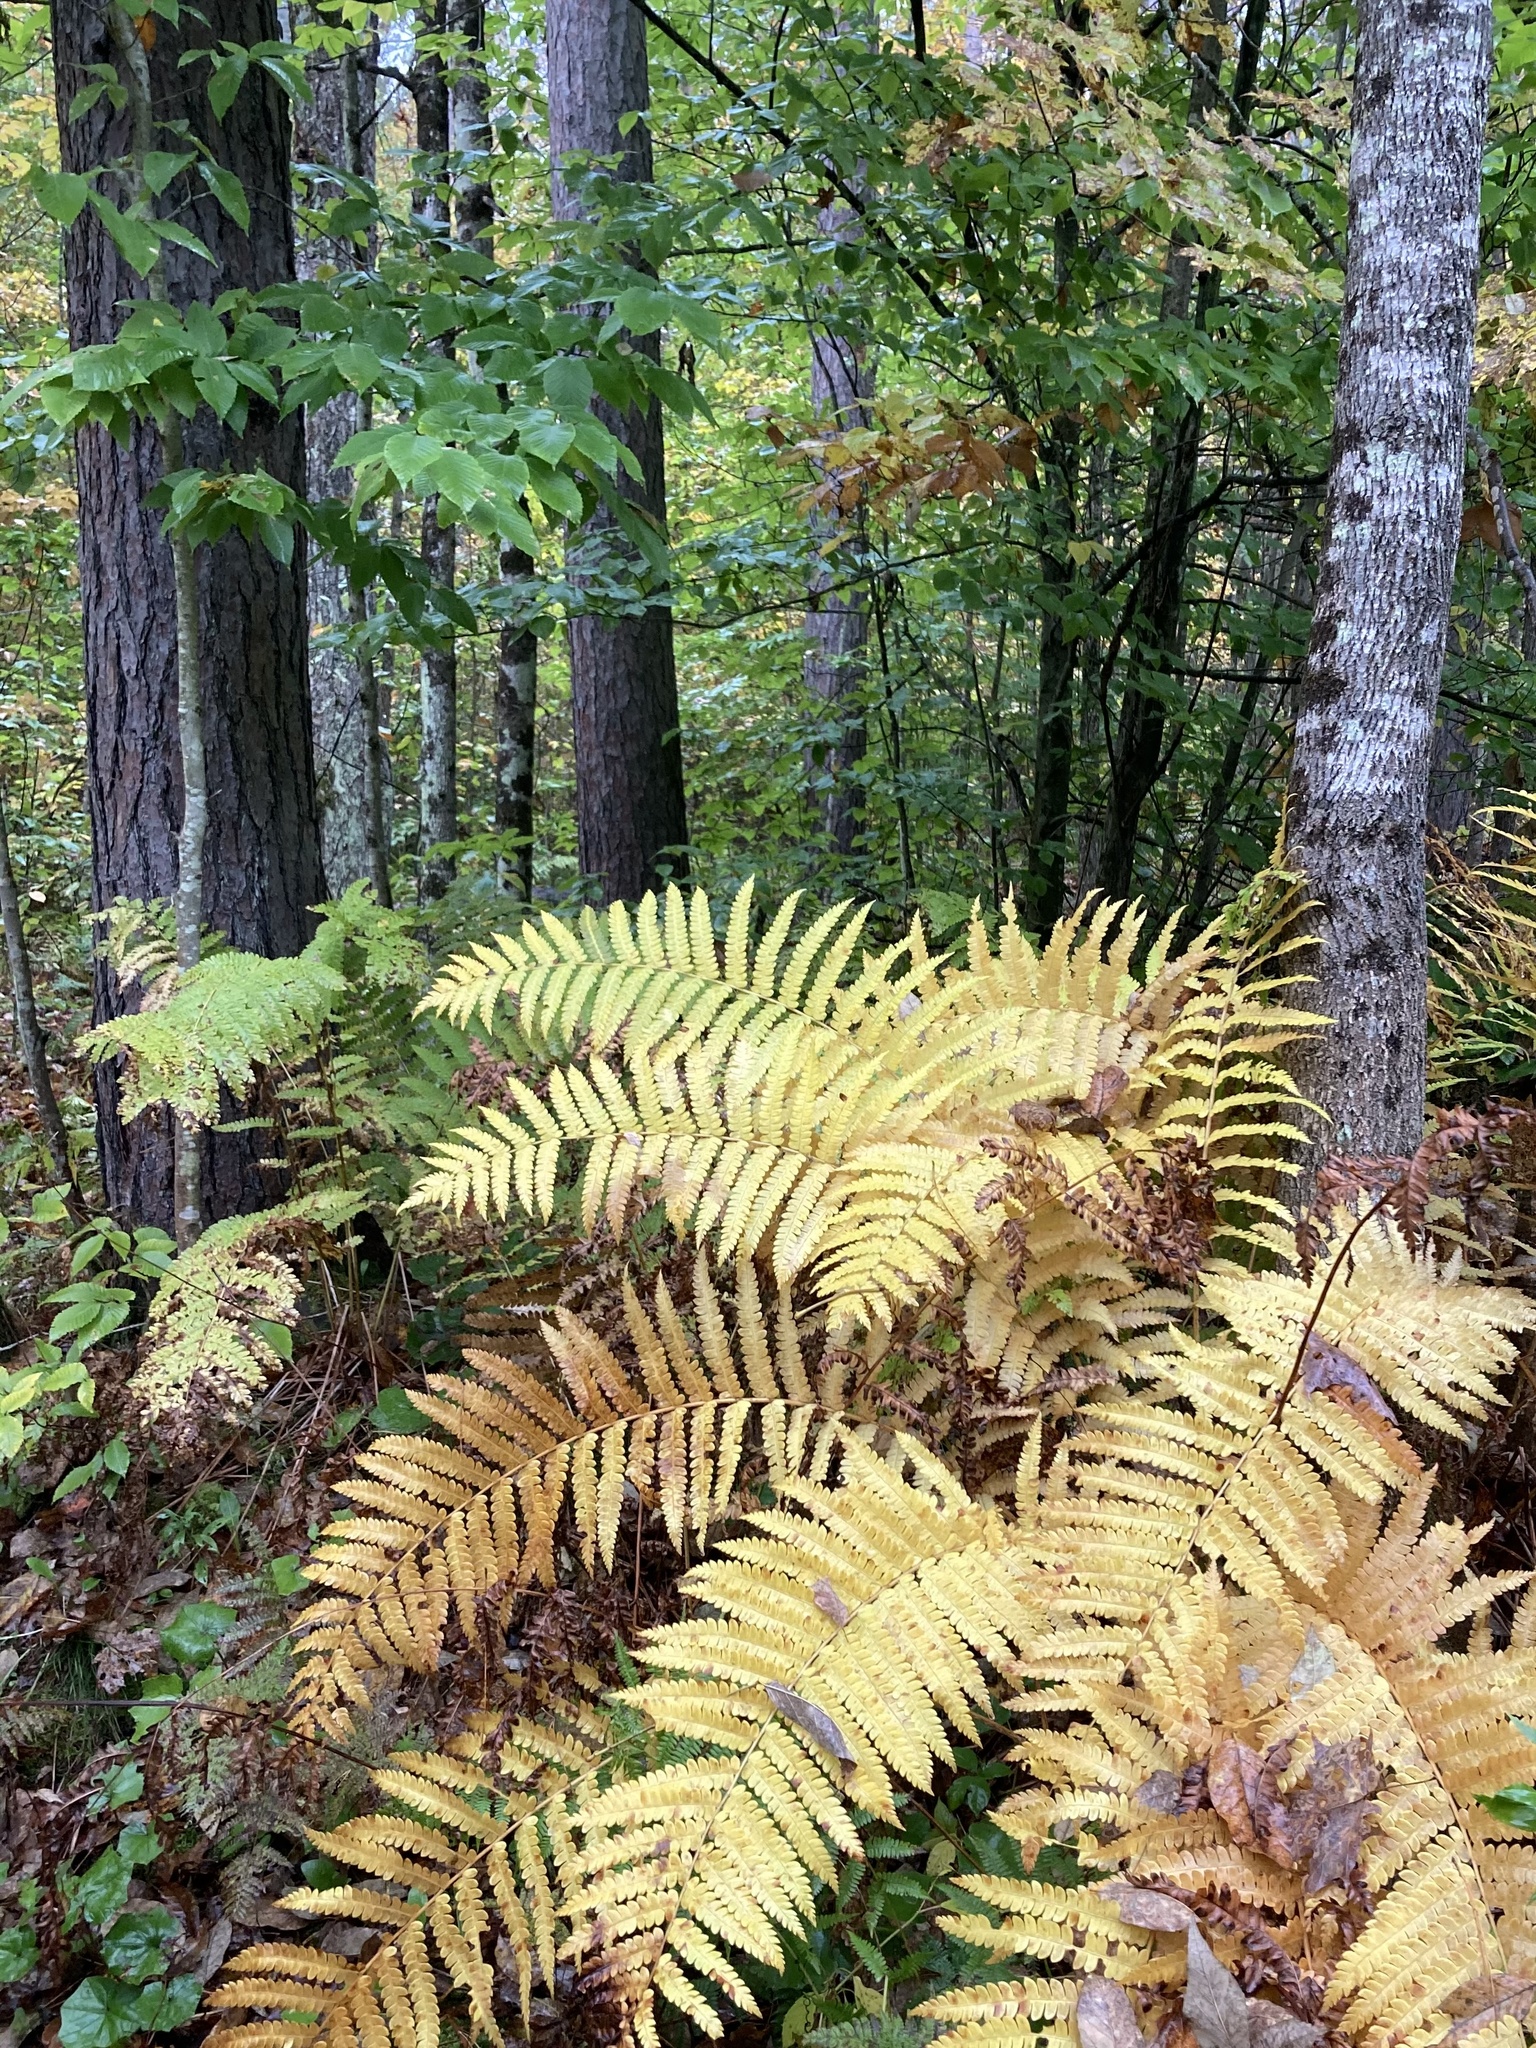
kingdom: Plantae
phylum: Tracheophyta
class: Polypodiopsida
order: Osmundales
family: Osmundaceae
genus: Claytosmunda
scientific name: Claytosmunda claytoniana
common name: Clayton's fern
